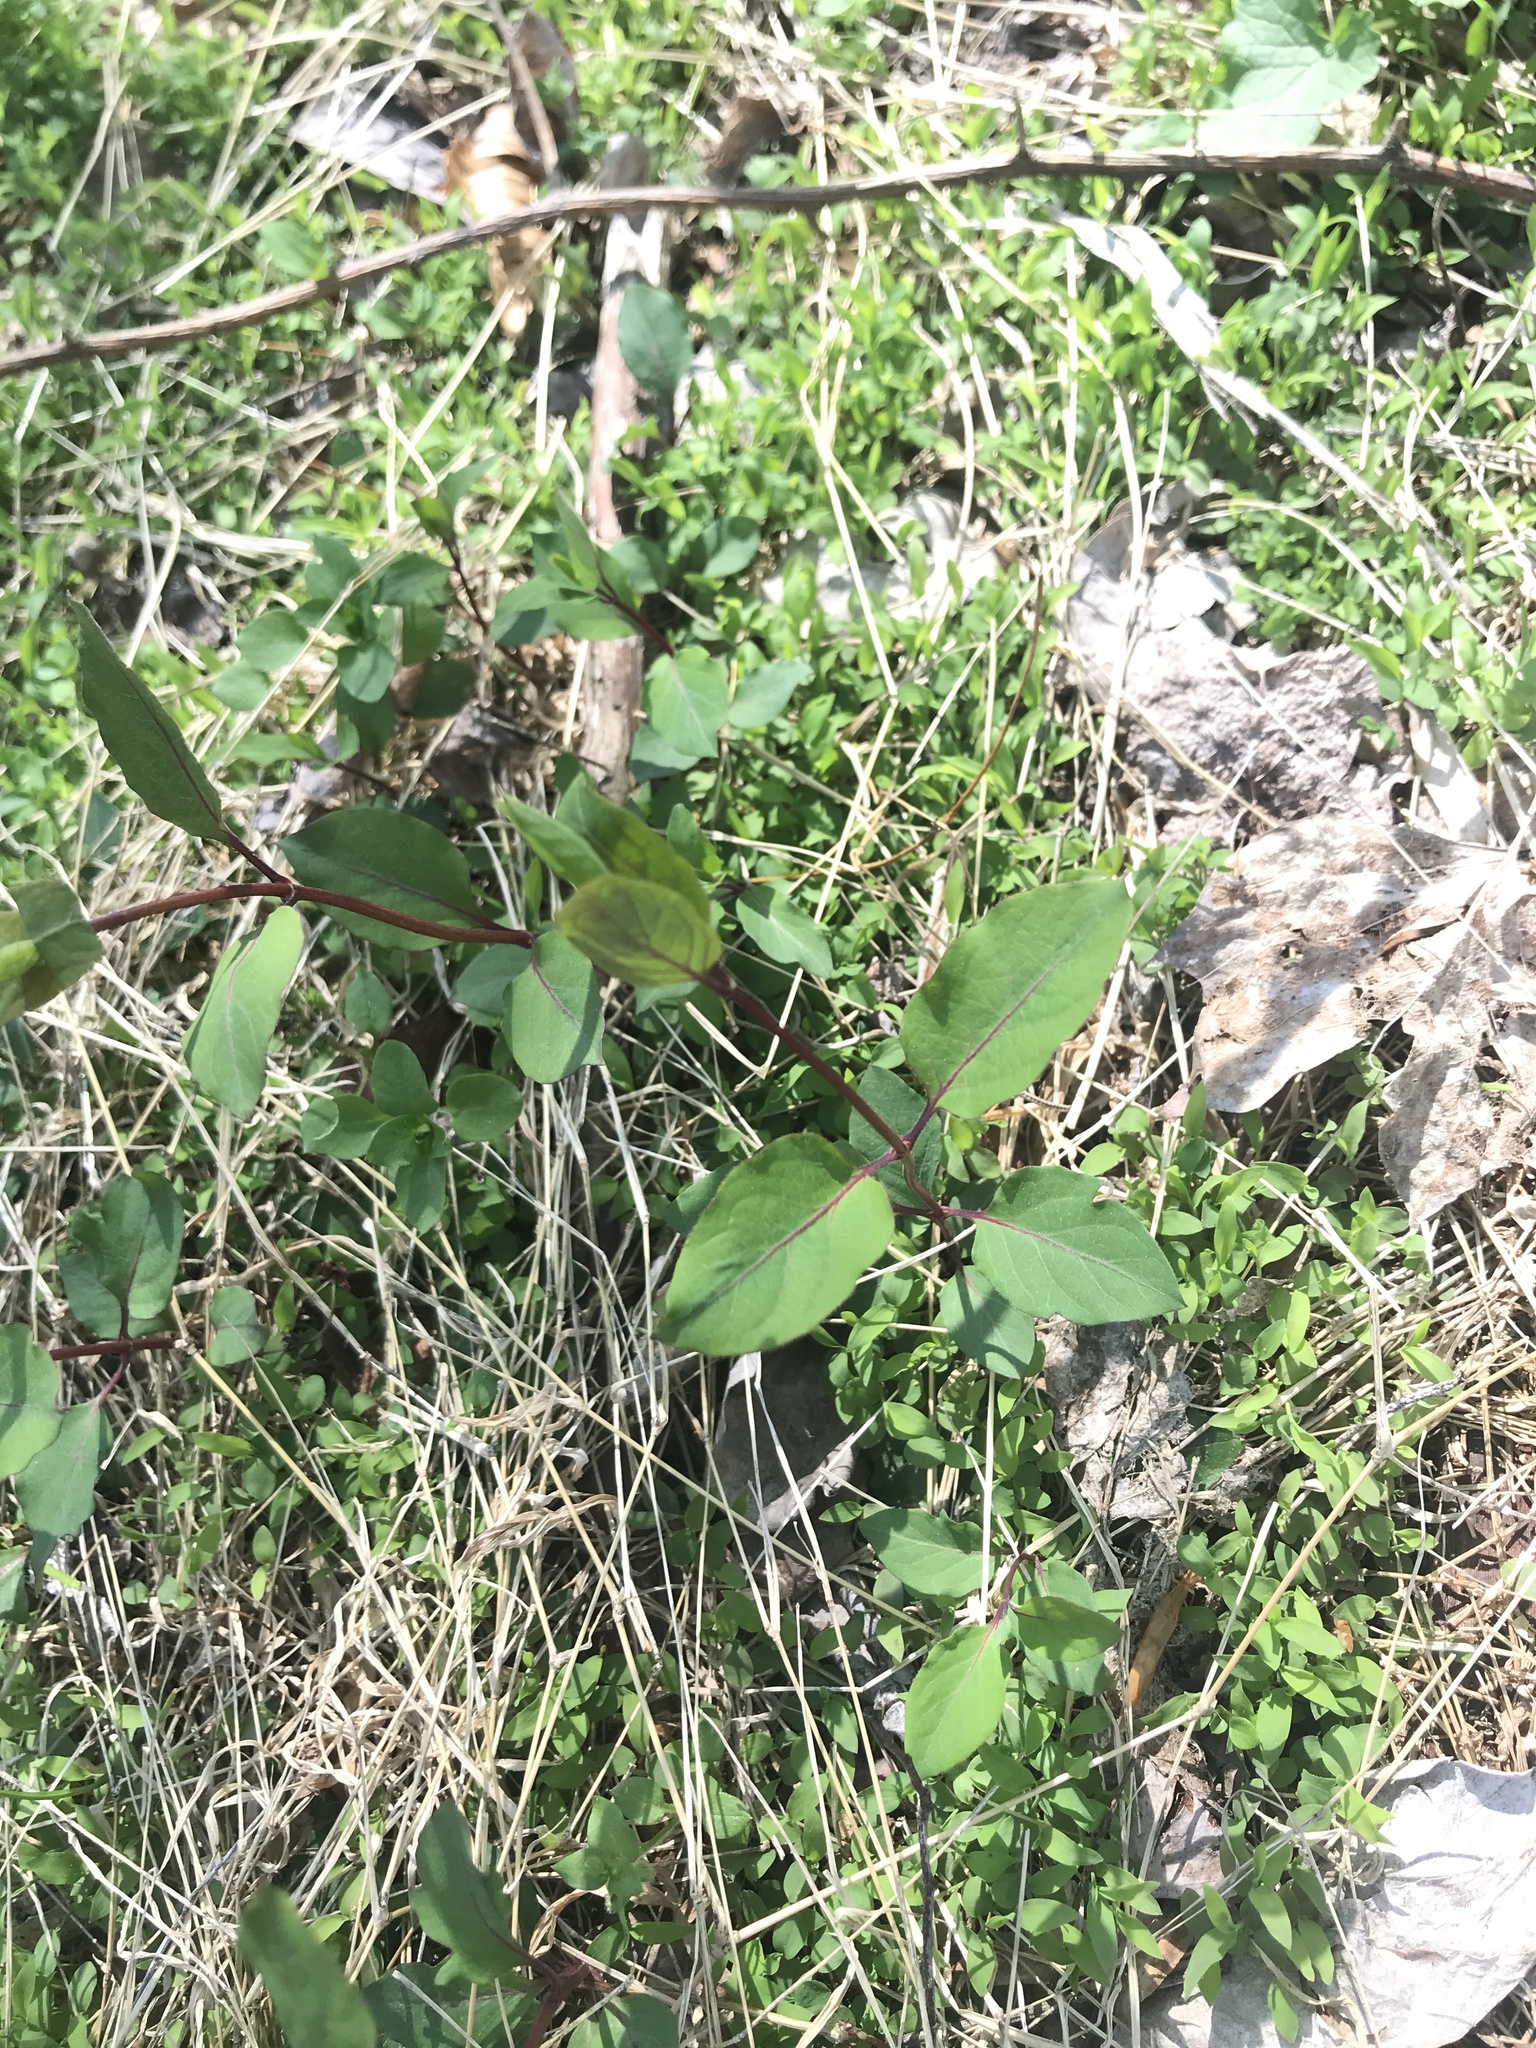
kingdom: Plantae
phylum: Tracheophyta
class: Magnoliopsida
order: Dipsacales
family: Caprifoliaceae
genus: Lonicera
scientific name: Lonicera japonica
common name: Japanese honeysuckle
